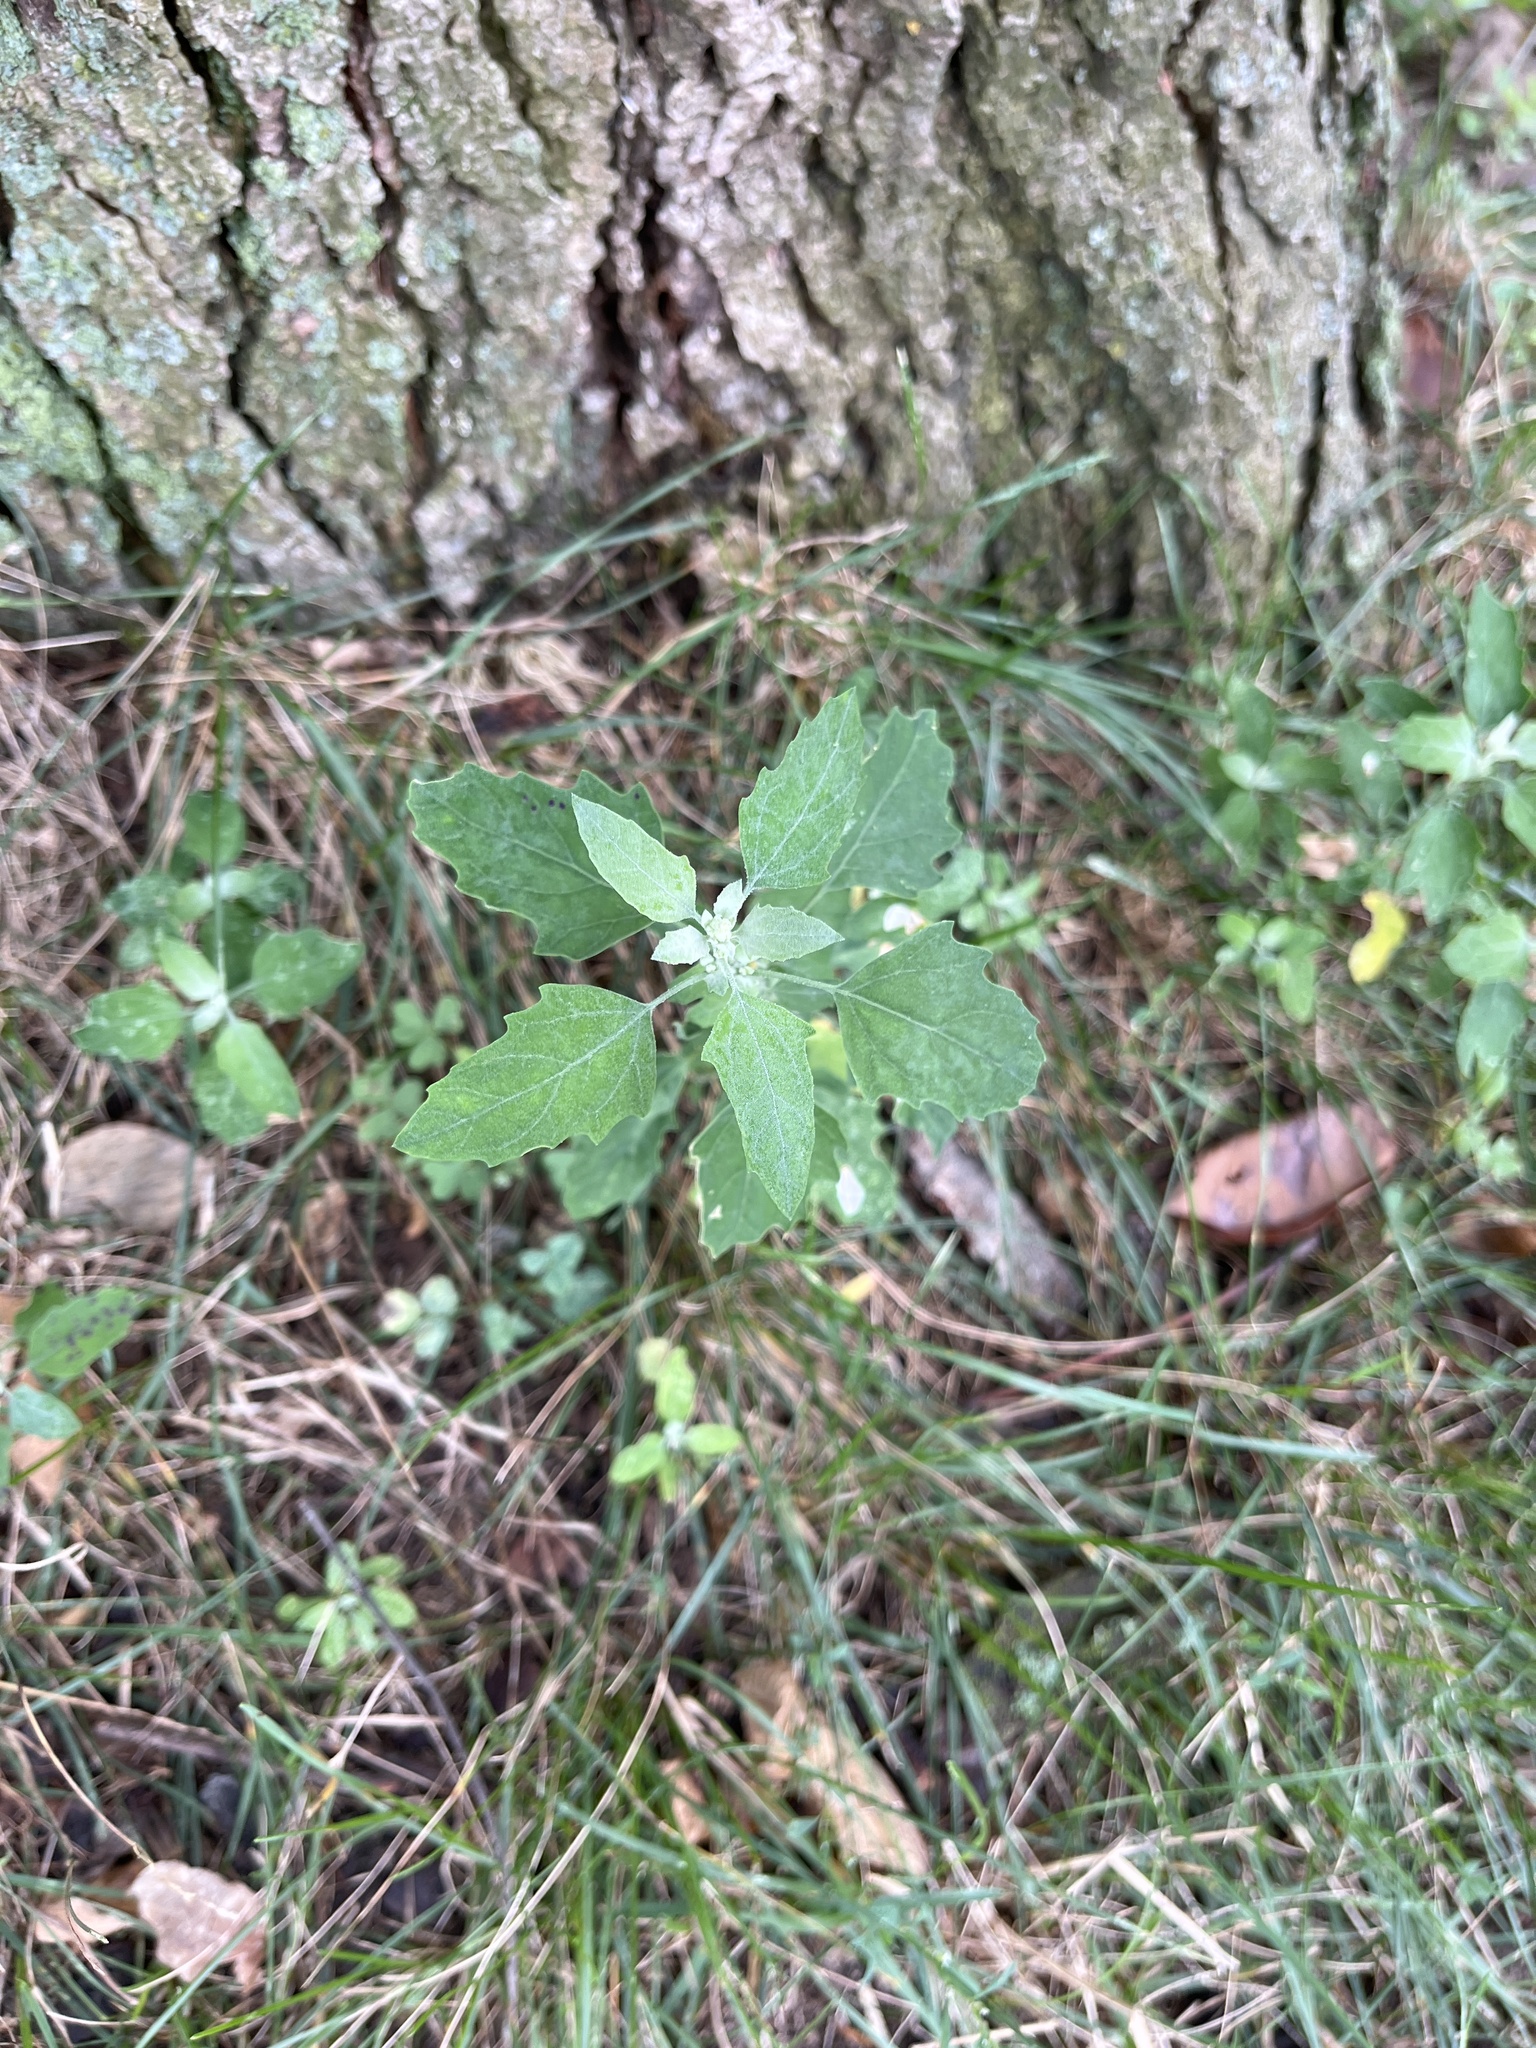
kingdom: Plantae
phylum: Tracheophyta
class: Magnoliopsida
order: Caryophyllales
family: Amaranthaceae
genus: Chenopodium
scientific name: Chenopodium album
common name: Fat-hen
